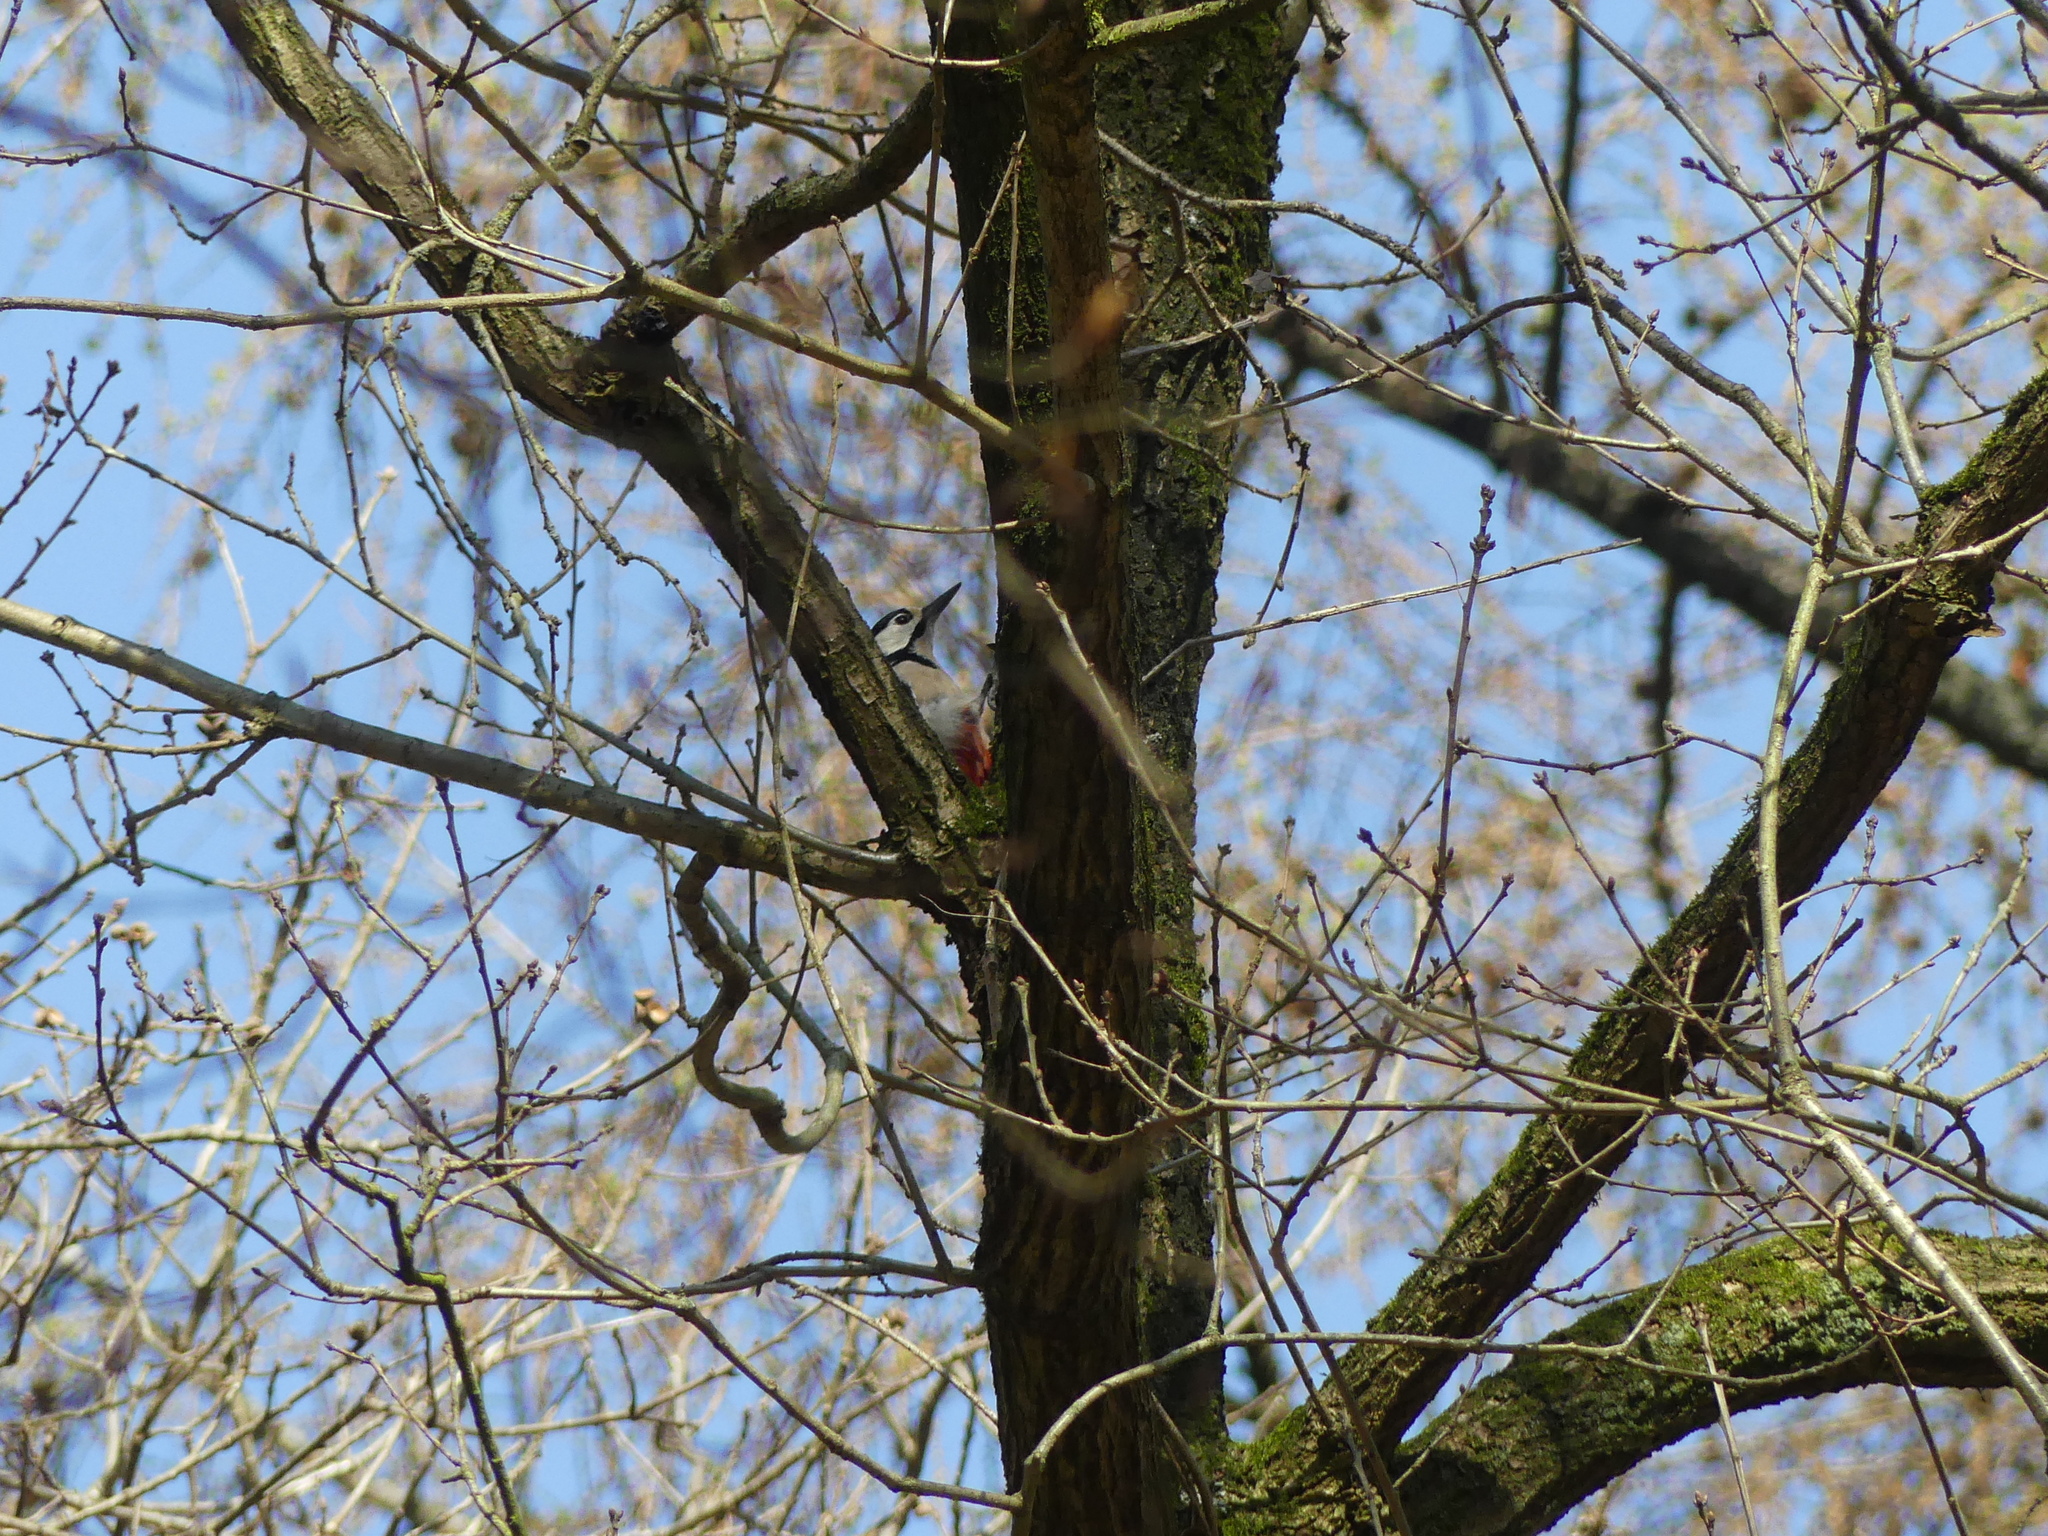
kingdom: Animalia
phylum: Chordata
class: Aves
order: Piciformes
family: Picidae
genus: Dendrocopos
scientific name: Dendrocopos major
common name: Great spotted woodpecker
